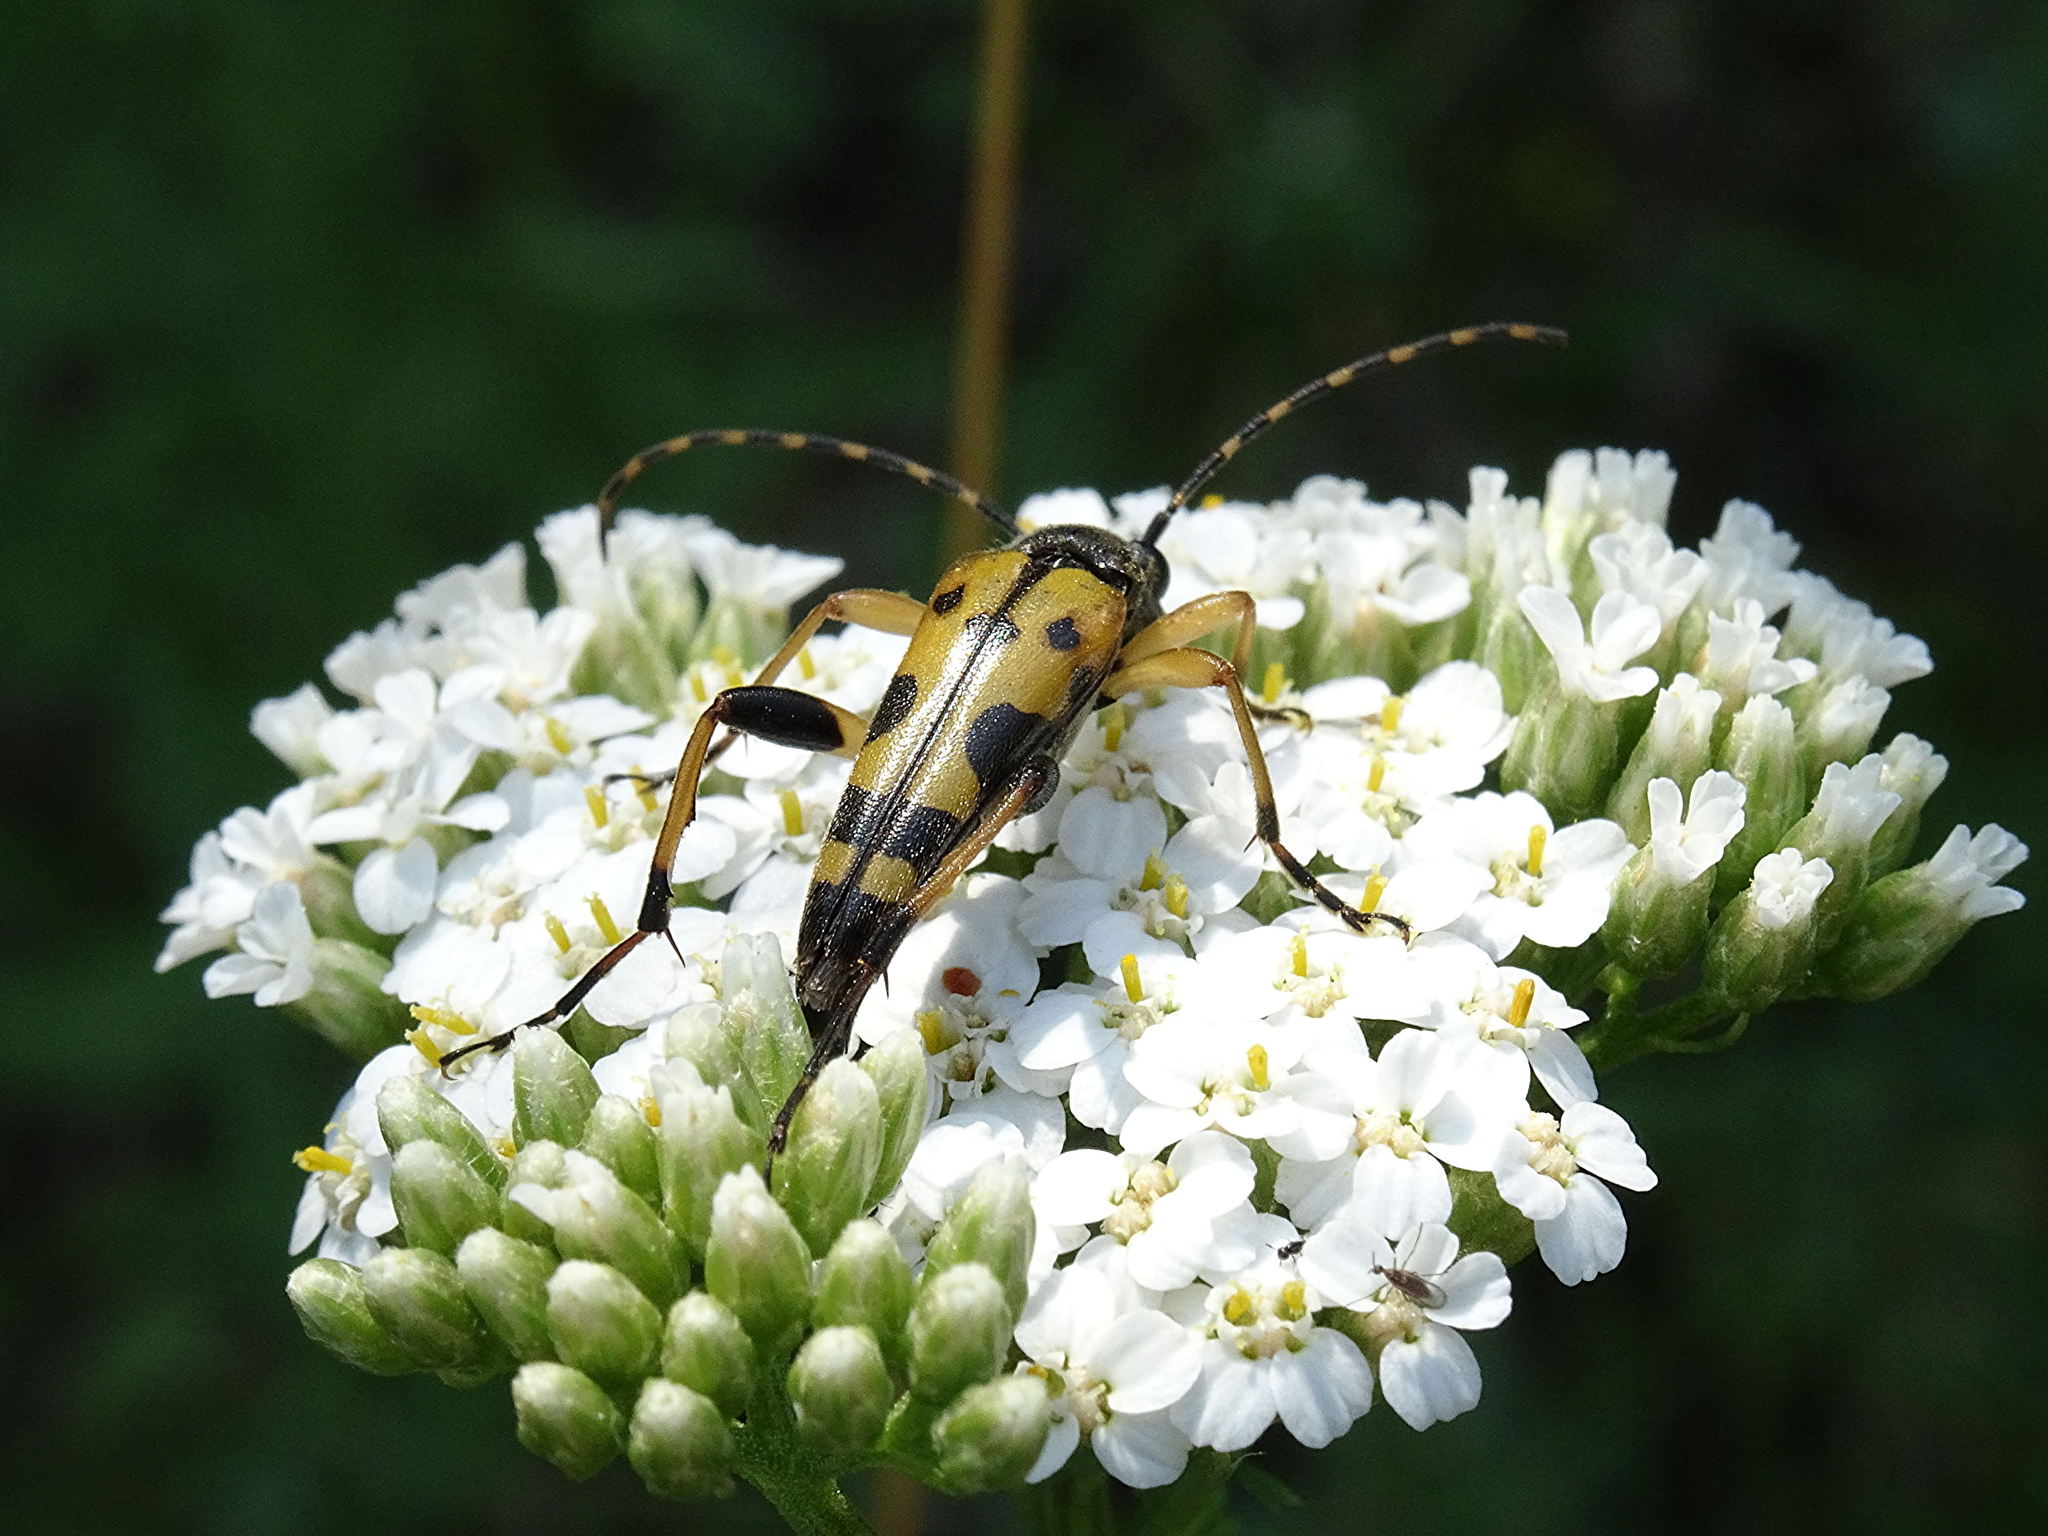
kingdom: Animalia
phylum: Arthropoda
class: Insecta
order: Coleoptera
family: Cerambycidae
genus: Rutpela
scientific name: Rutpela maculata
